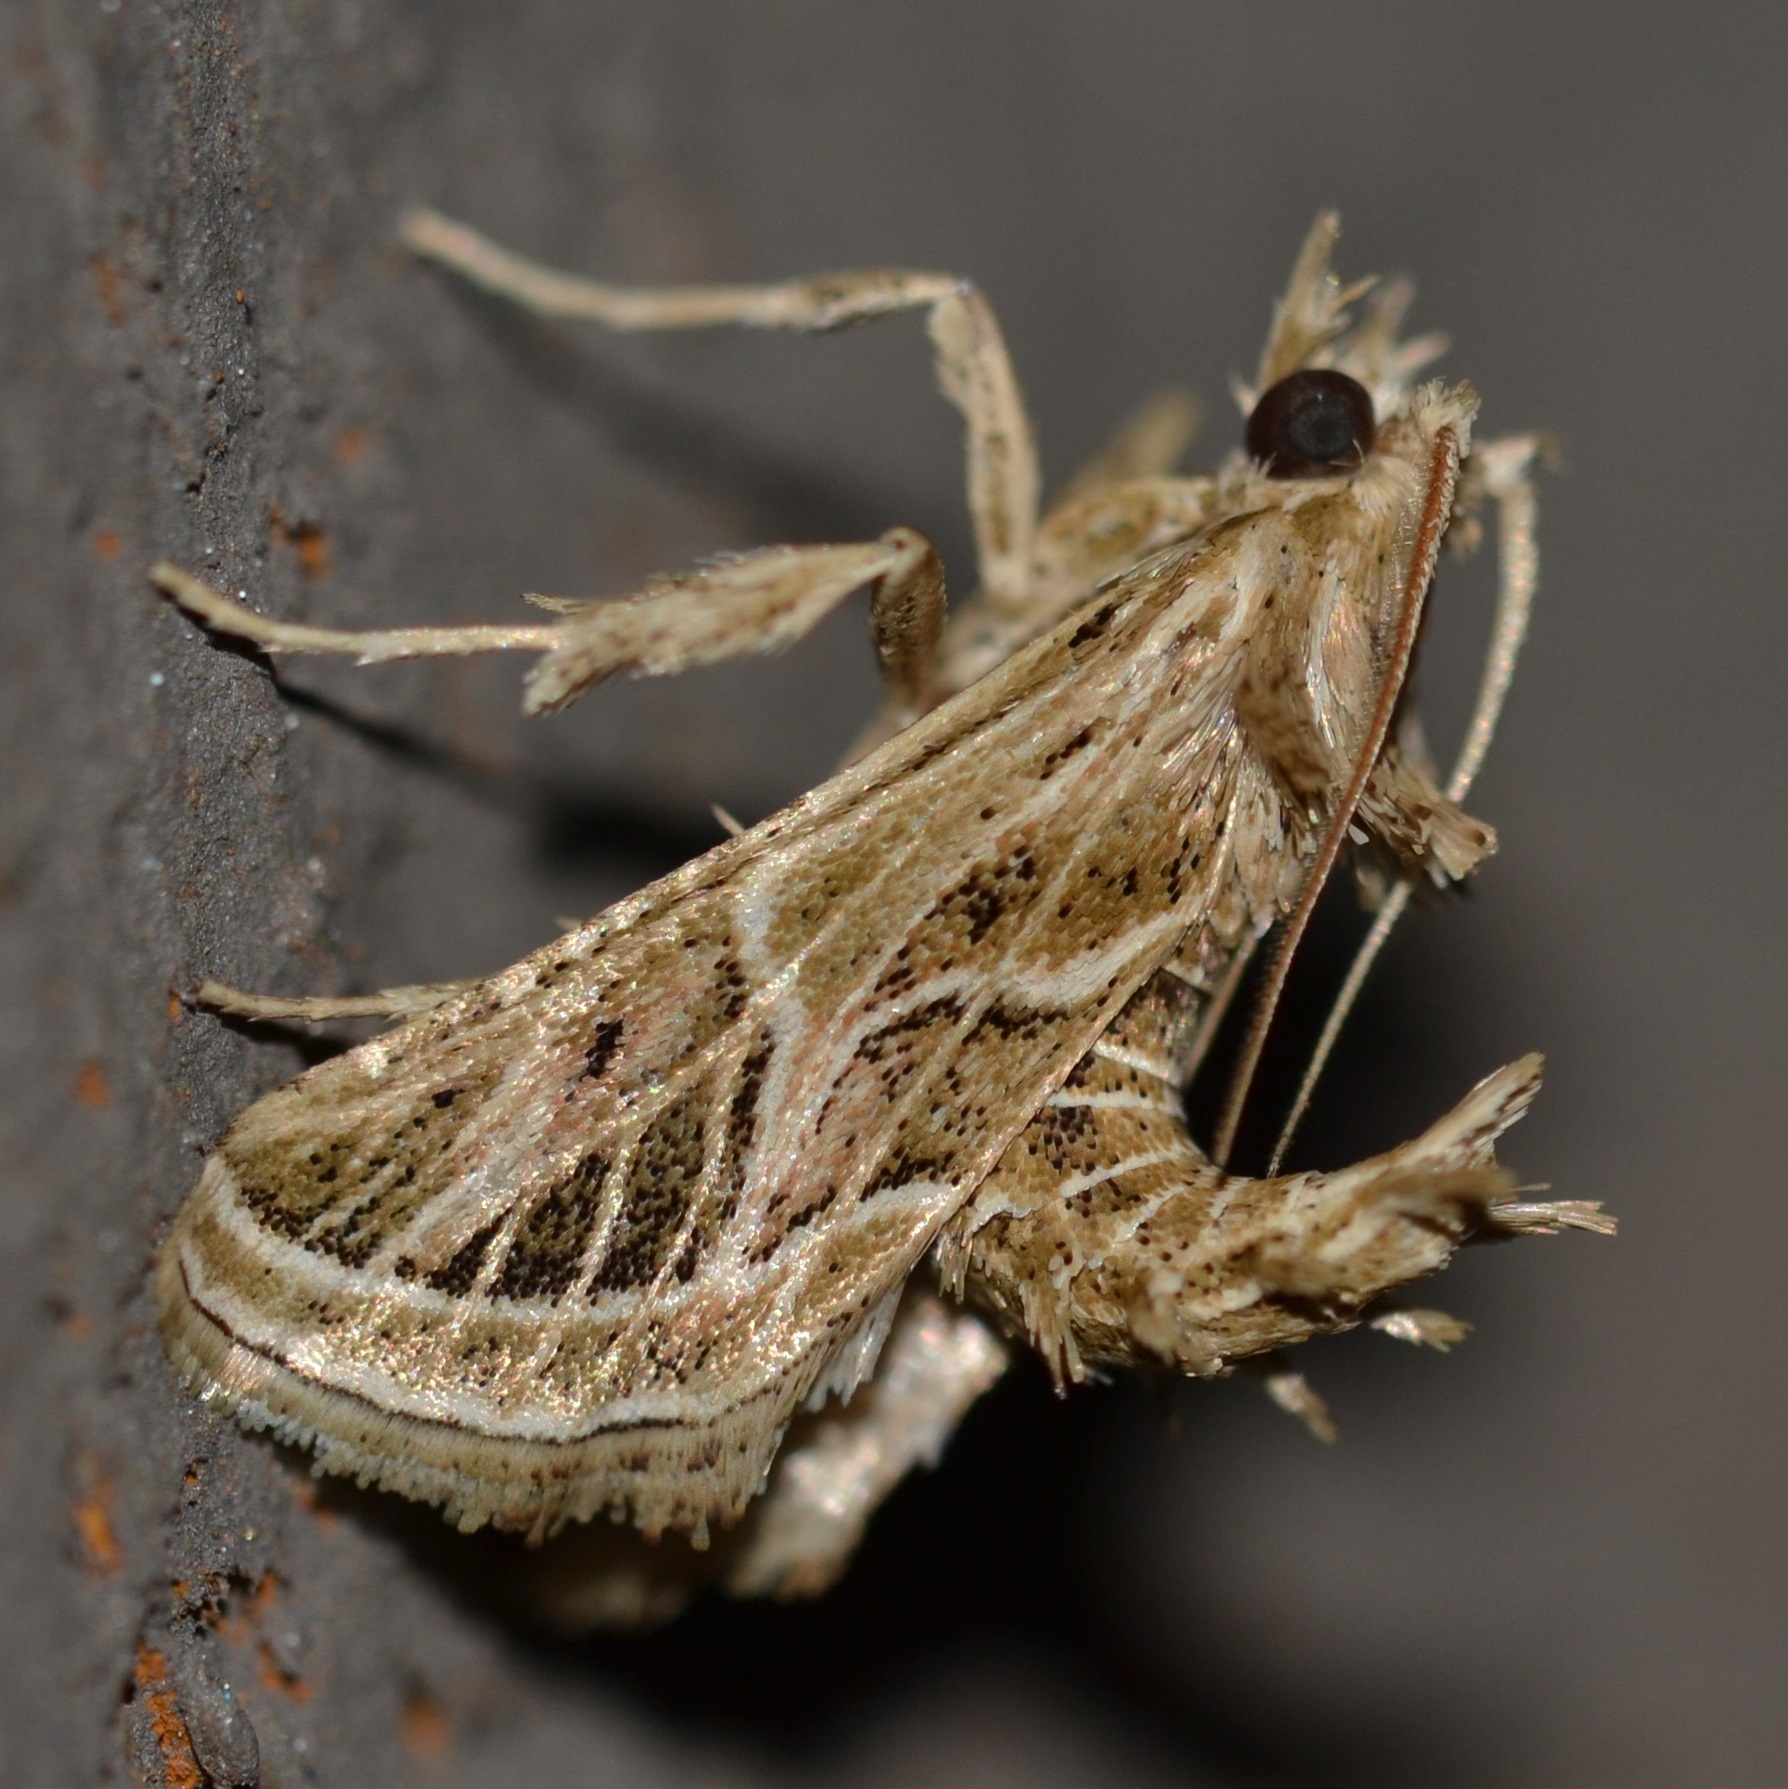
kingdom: Animalia
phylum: Arthropoda
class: Insecta
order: Lepidoptera
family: Pyralidae
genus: Loryma
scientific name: Loryma recusata
